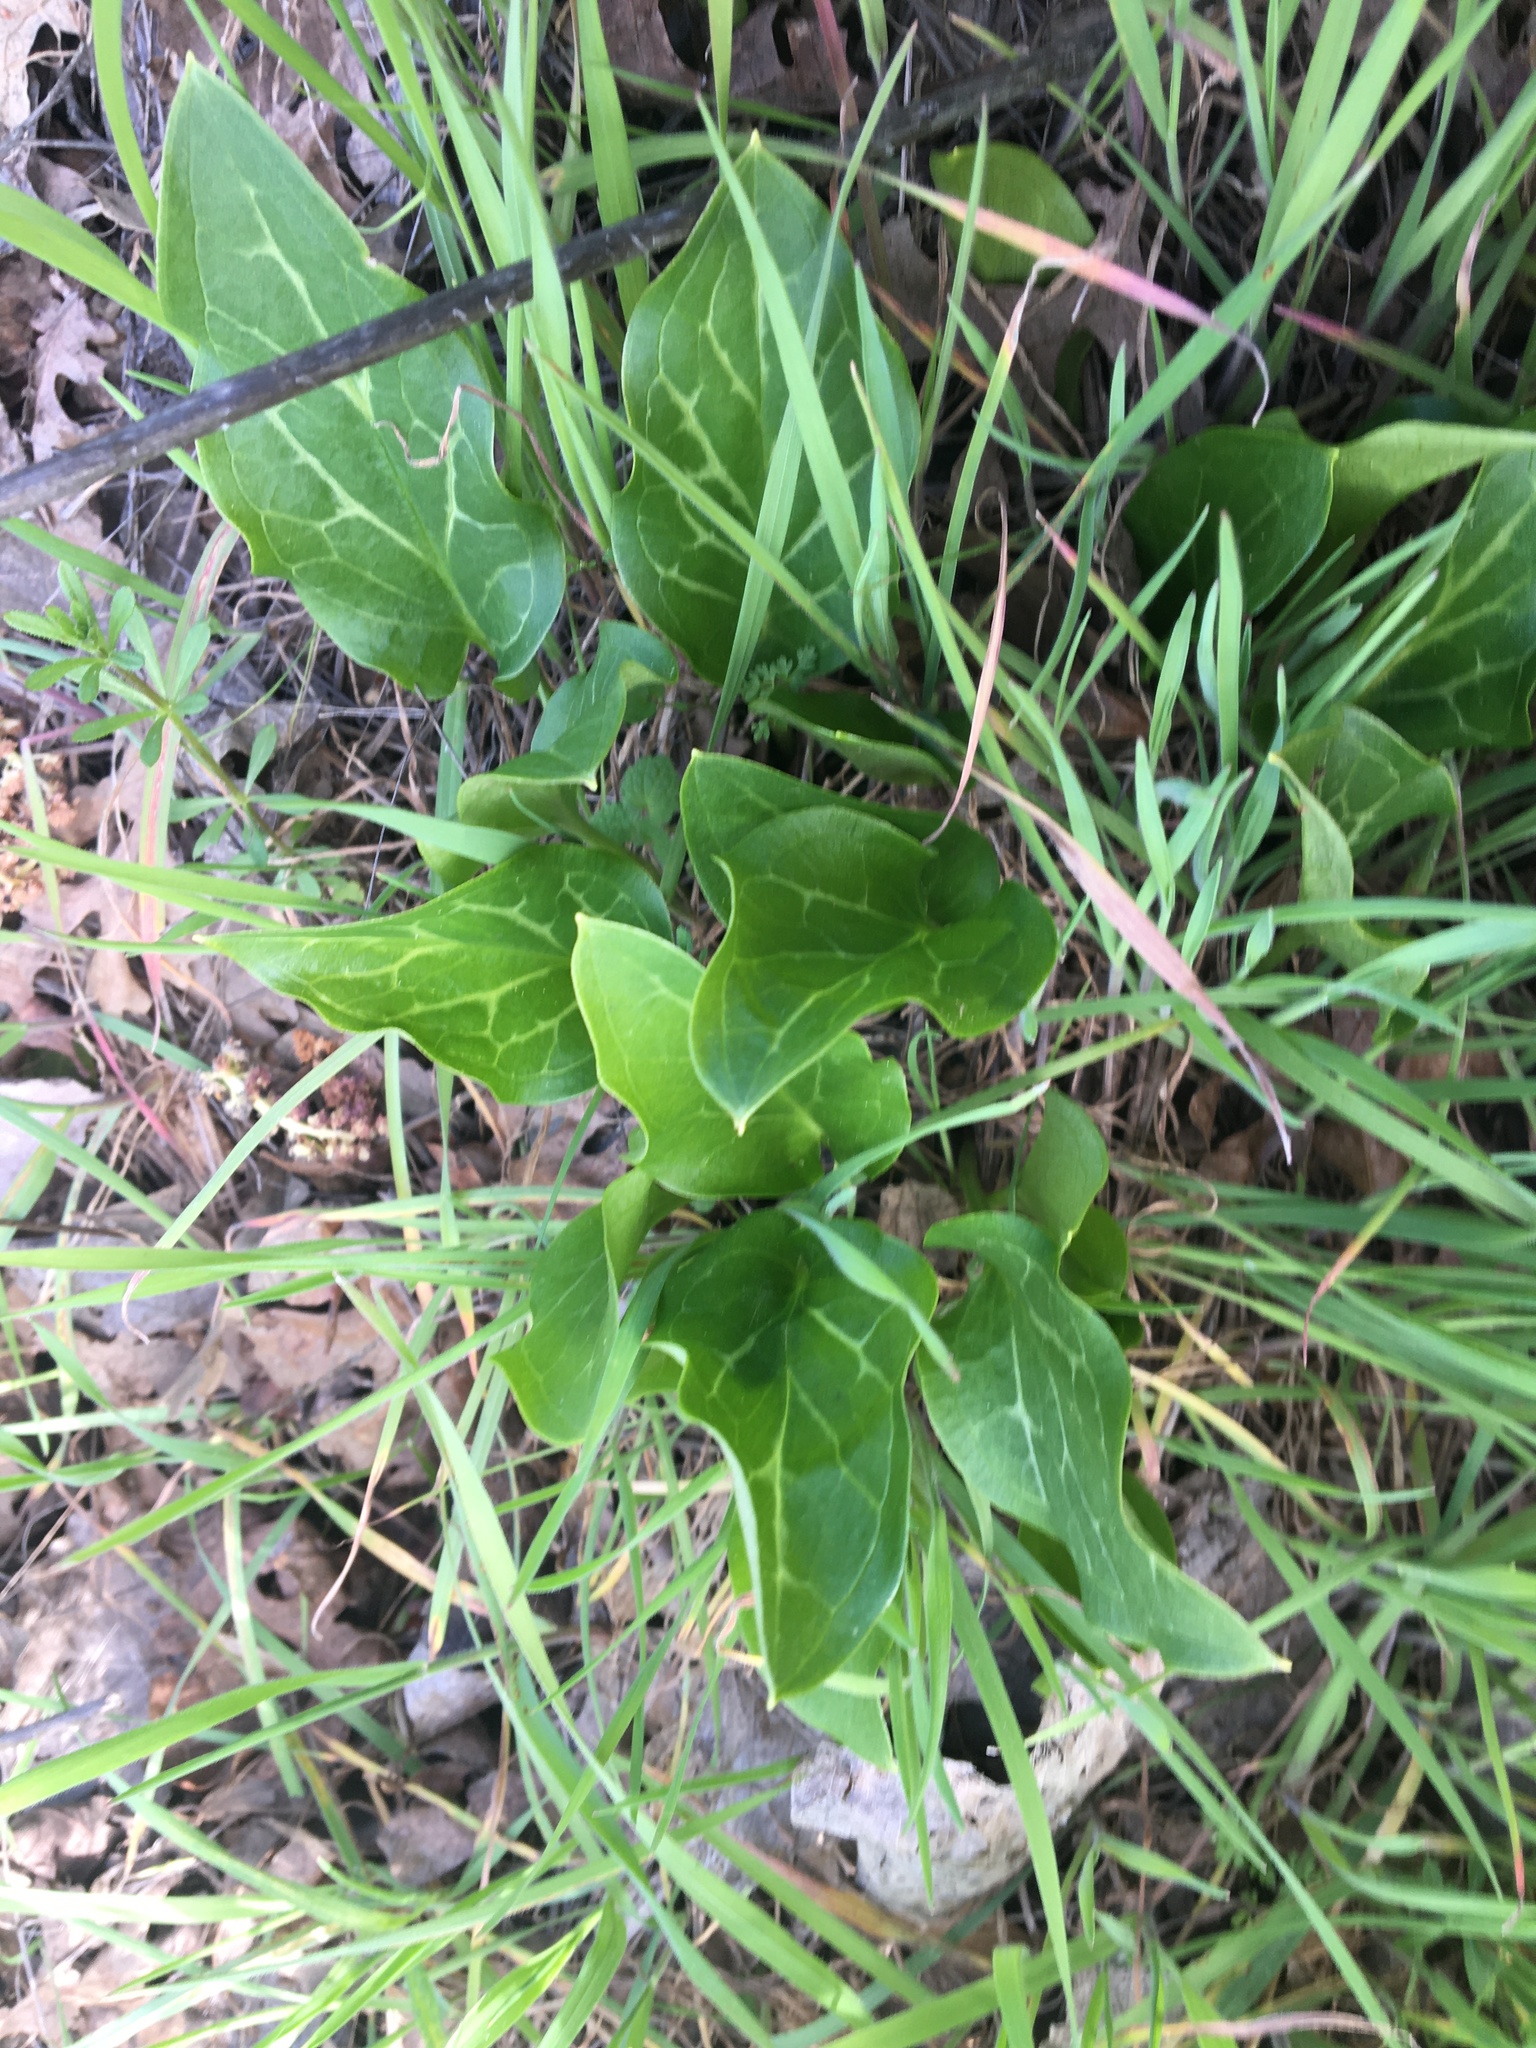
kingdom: Plantae
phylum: Tracheophyta
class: Liliopsida
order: Alismatales
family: Araceae
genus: Arum
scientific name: Arum italicum
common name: Italian lords-and-ladies
